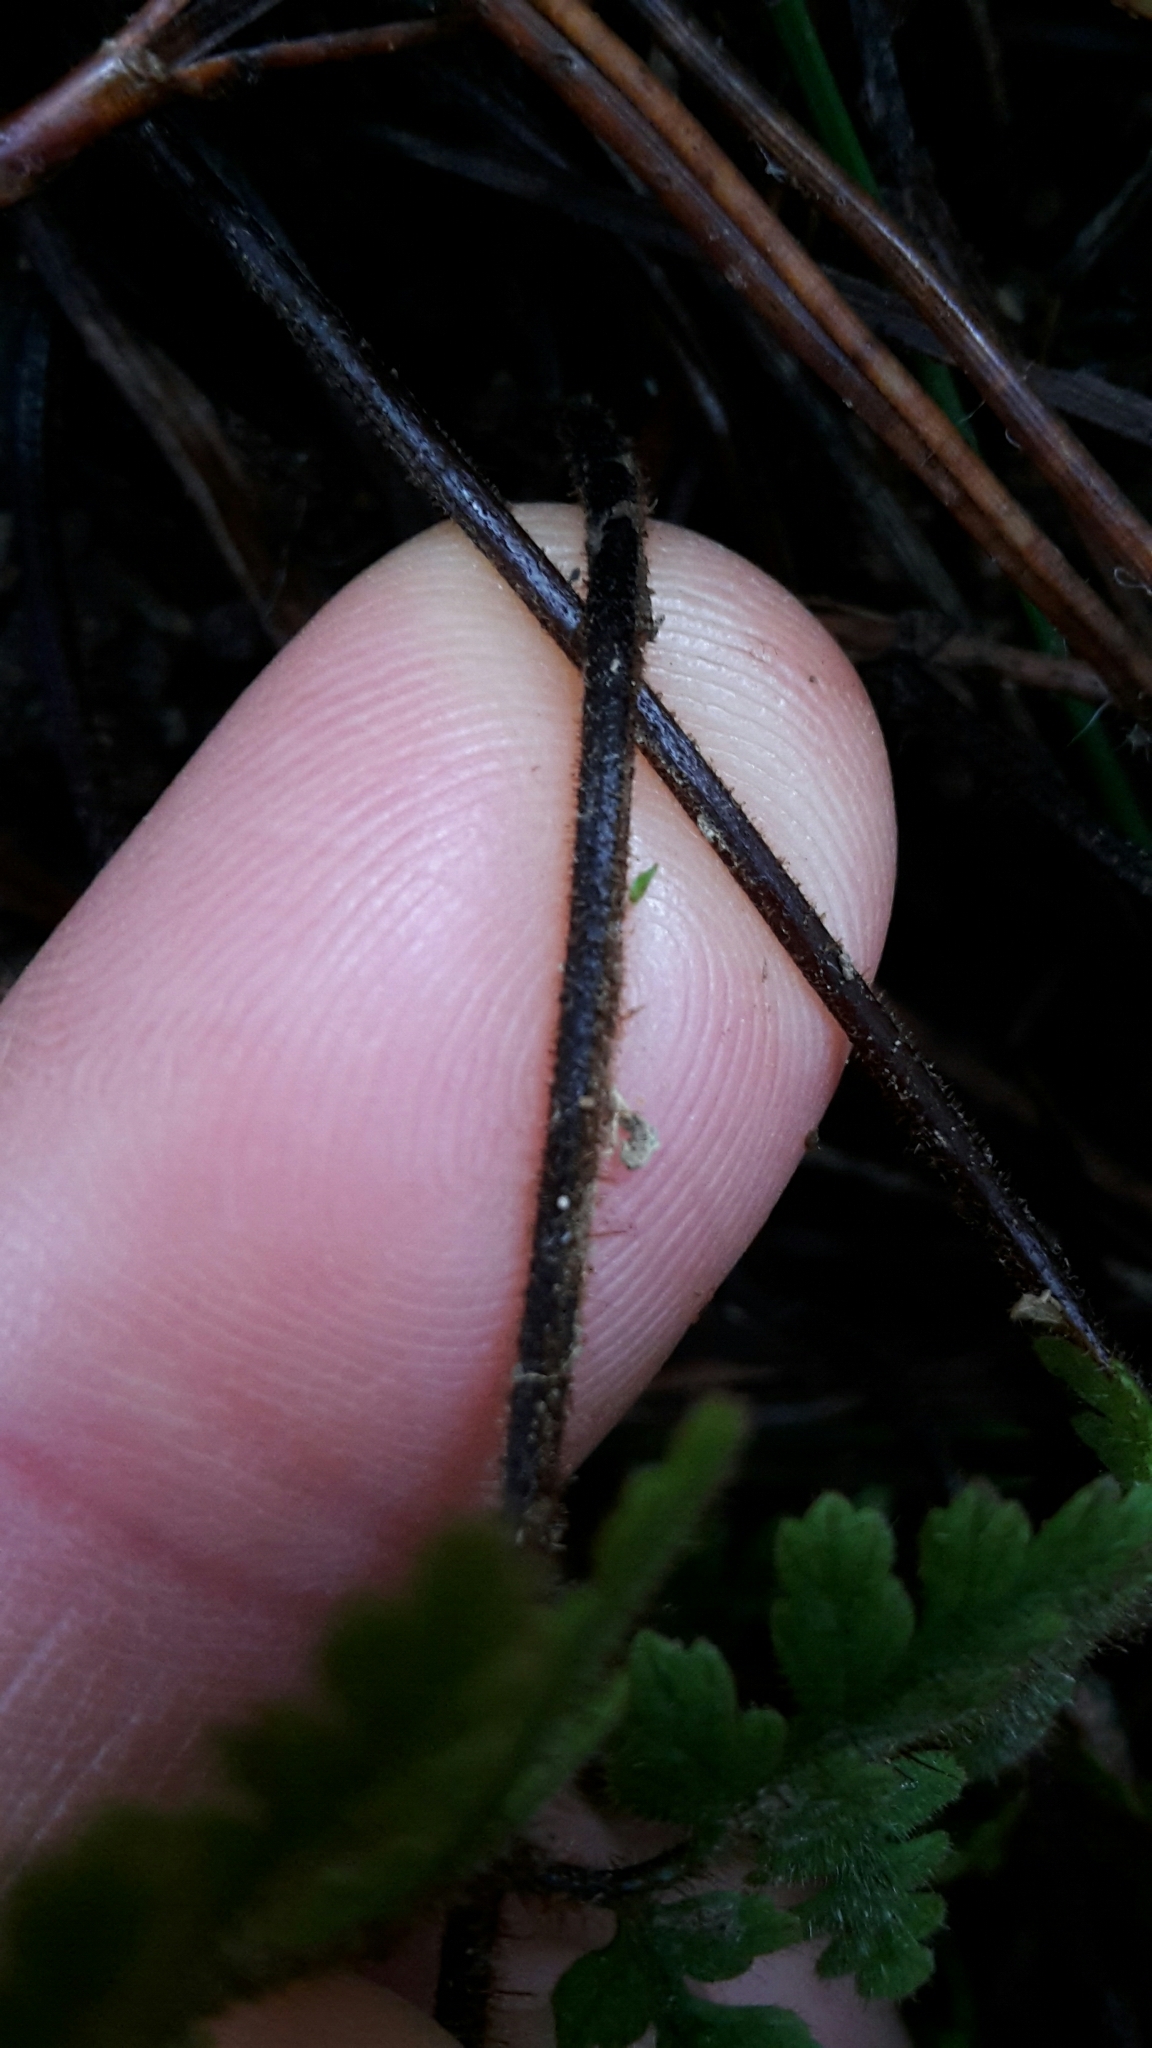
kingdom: Plantae
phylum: Tracheophyta
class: Polypodiopsida
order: Polypodiales
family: Dennstaedtiaceae
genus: Hypolepis
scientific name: Hypolepis rugosula
